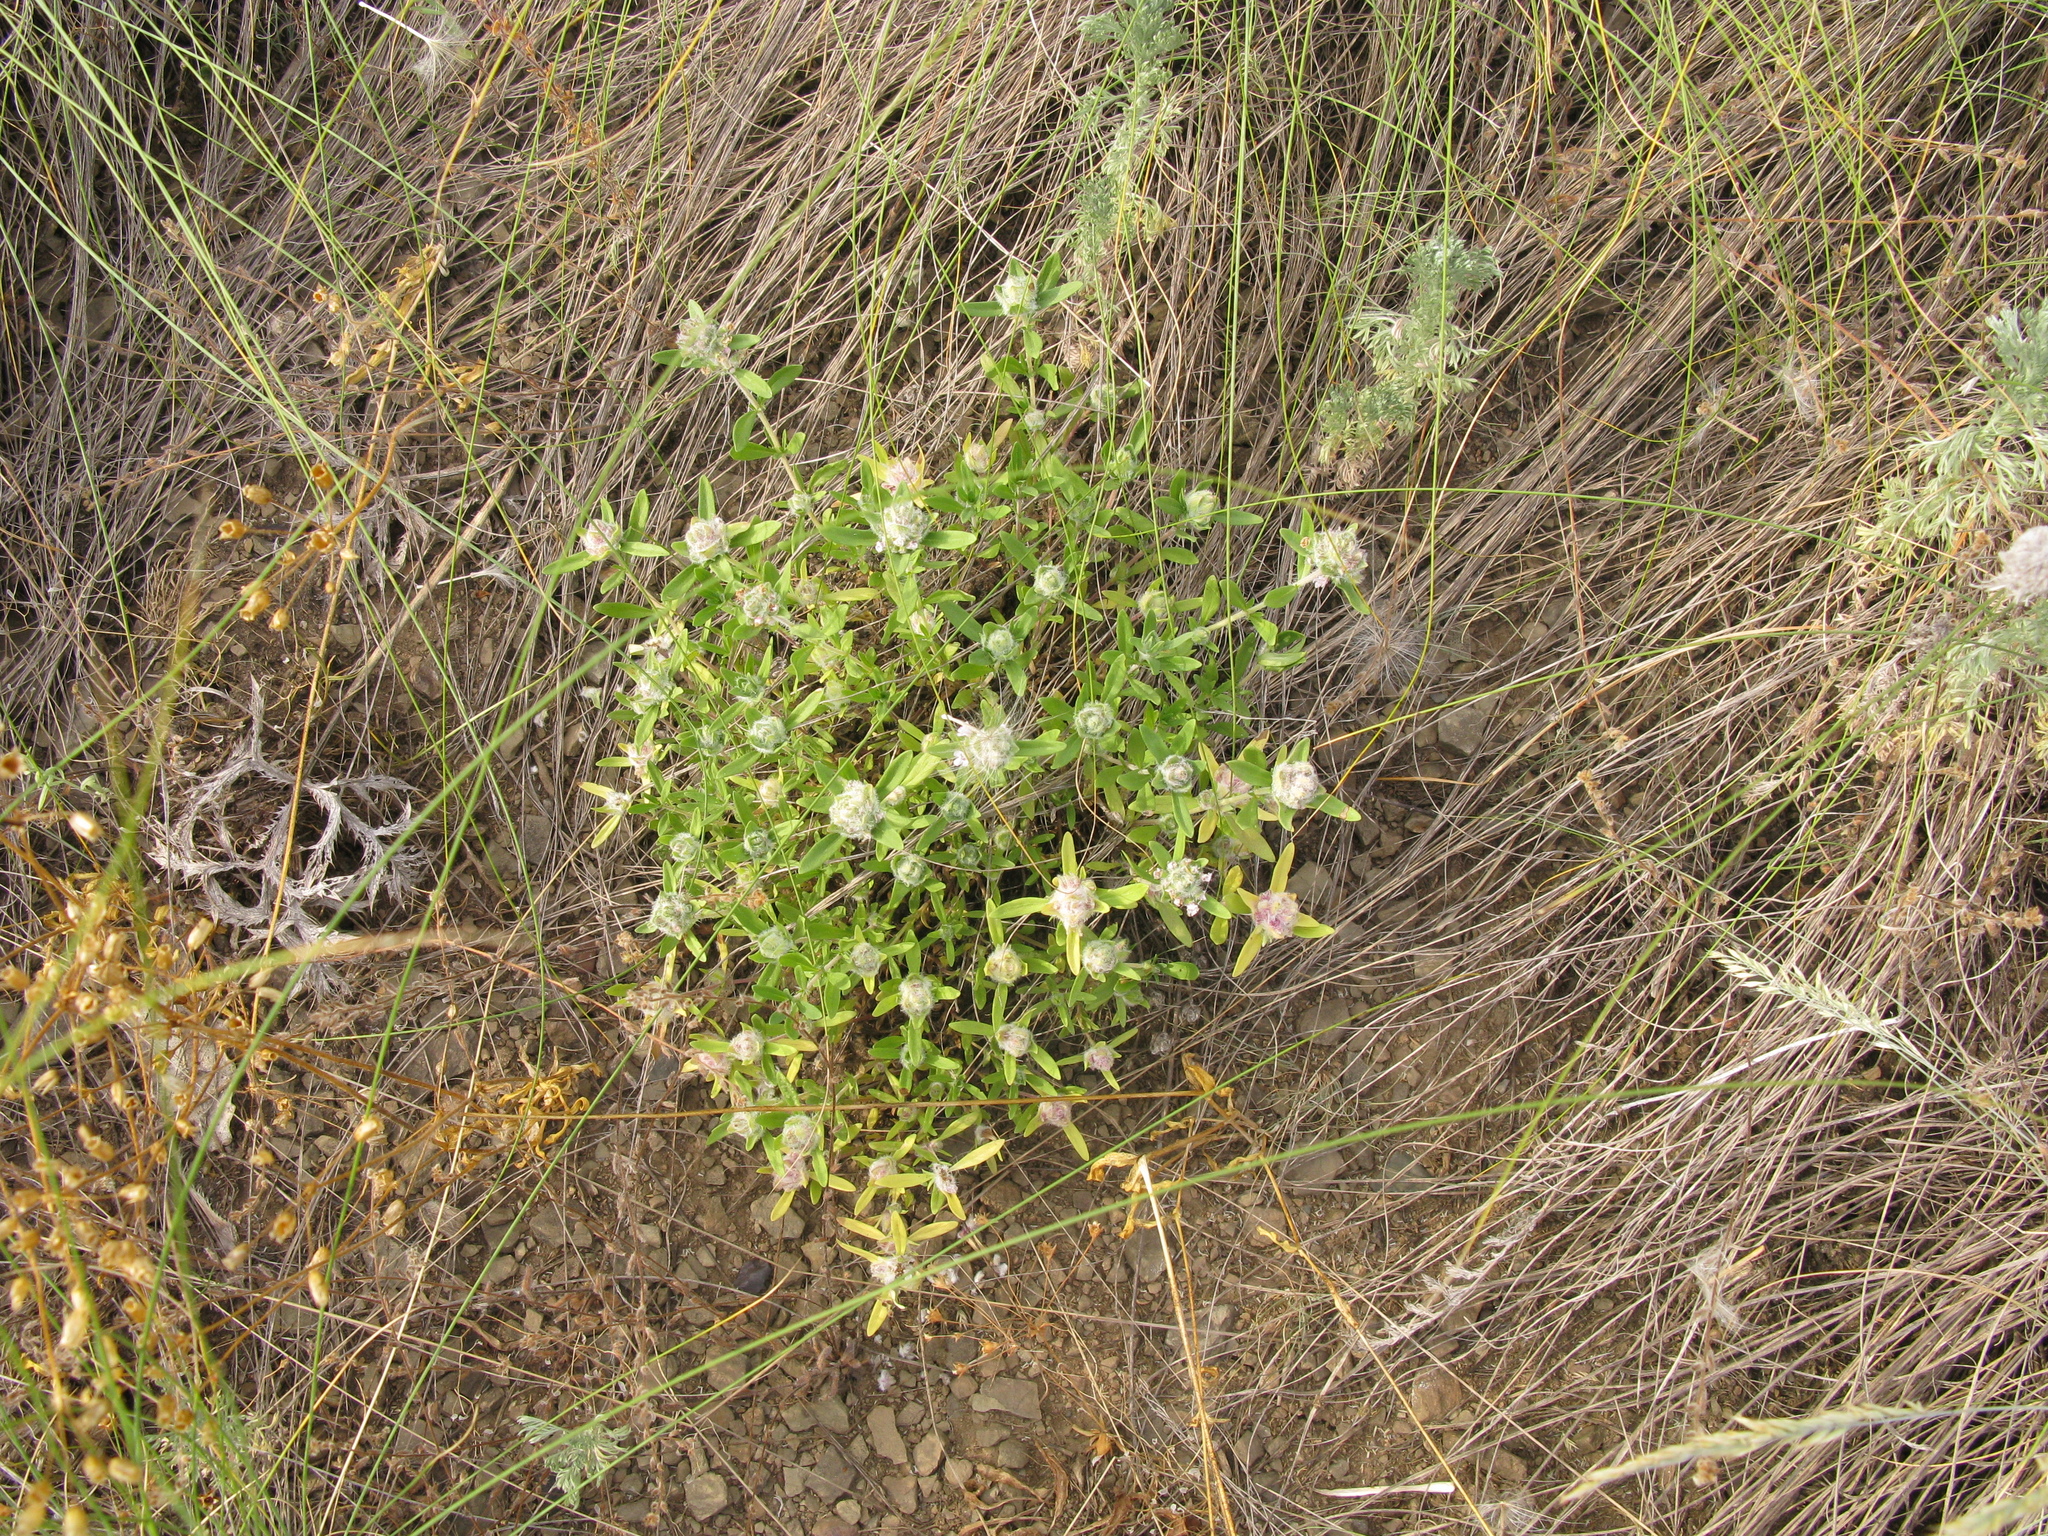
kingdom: Plantae
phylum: Tracheophyta
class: Magnoliopsida
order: Lamiales
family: Lamiaceae
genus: Thymus
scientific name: Thymus pannonicus
